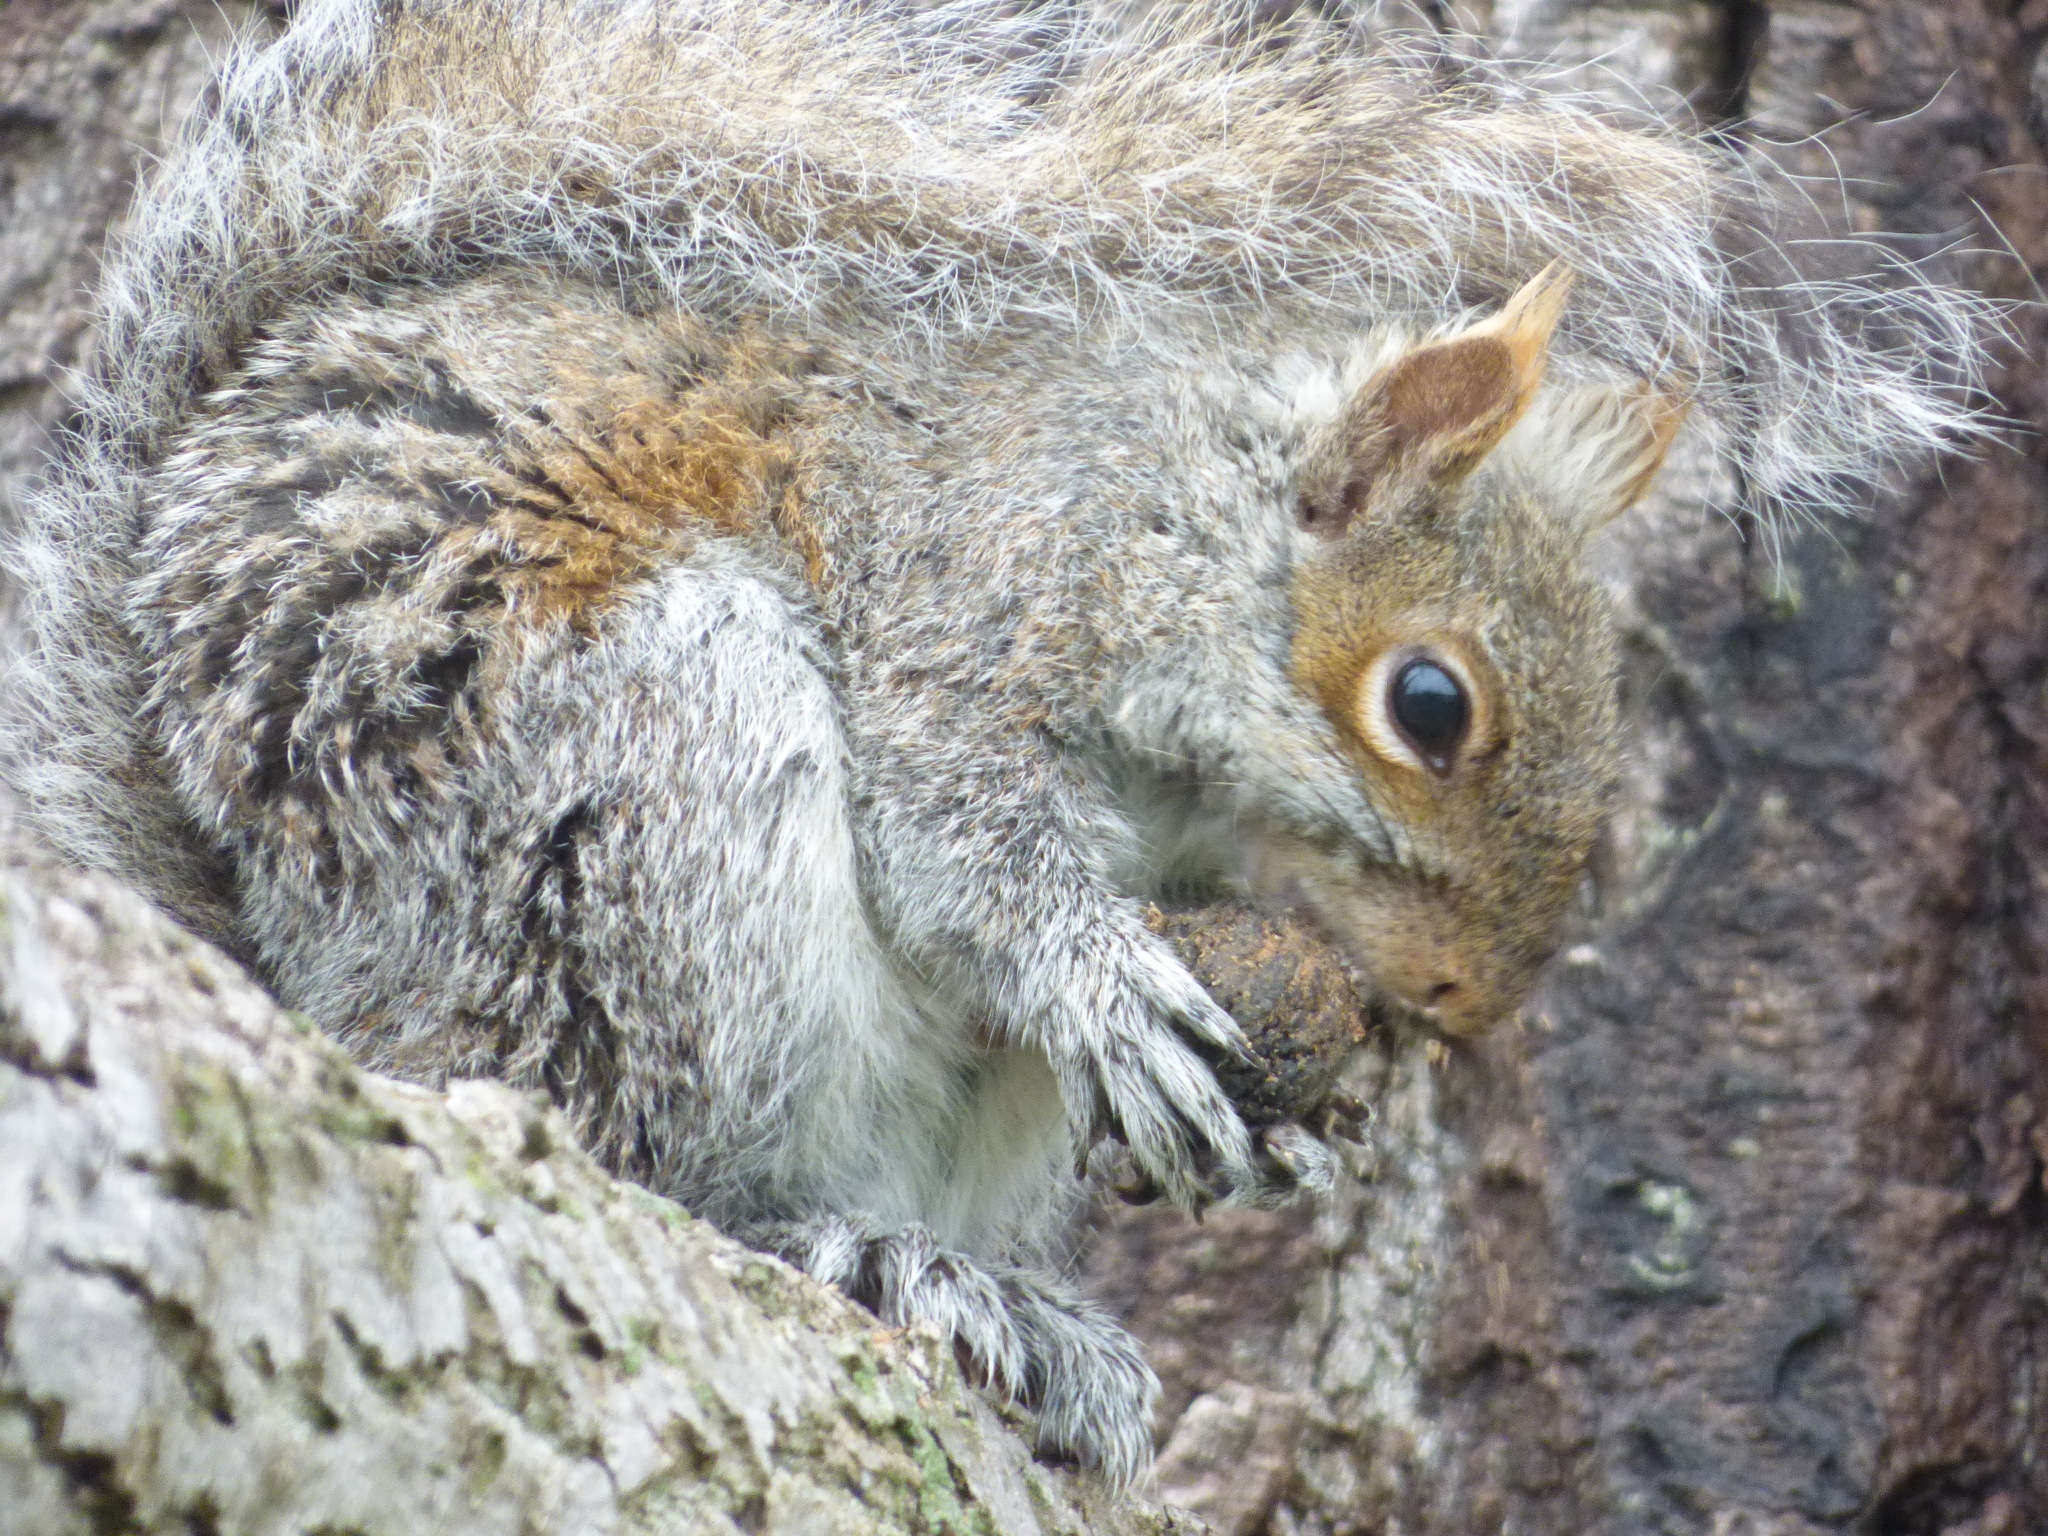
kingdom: Animalia
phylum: Chordata
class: Mammalia
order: Rodentia
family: Sciuridae
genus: Sciurus
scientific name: Sciurus carolinensis
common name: Eastern gray squirrel
